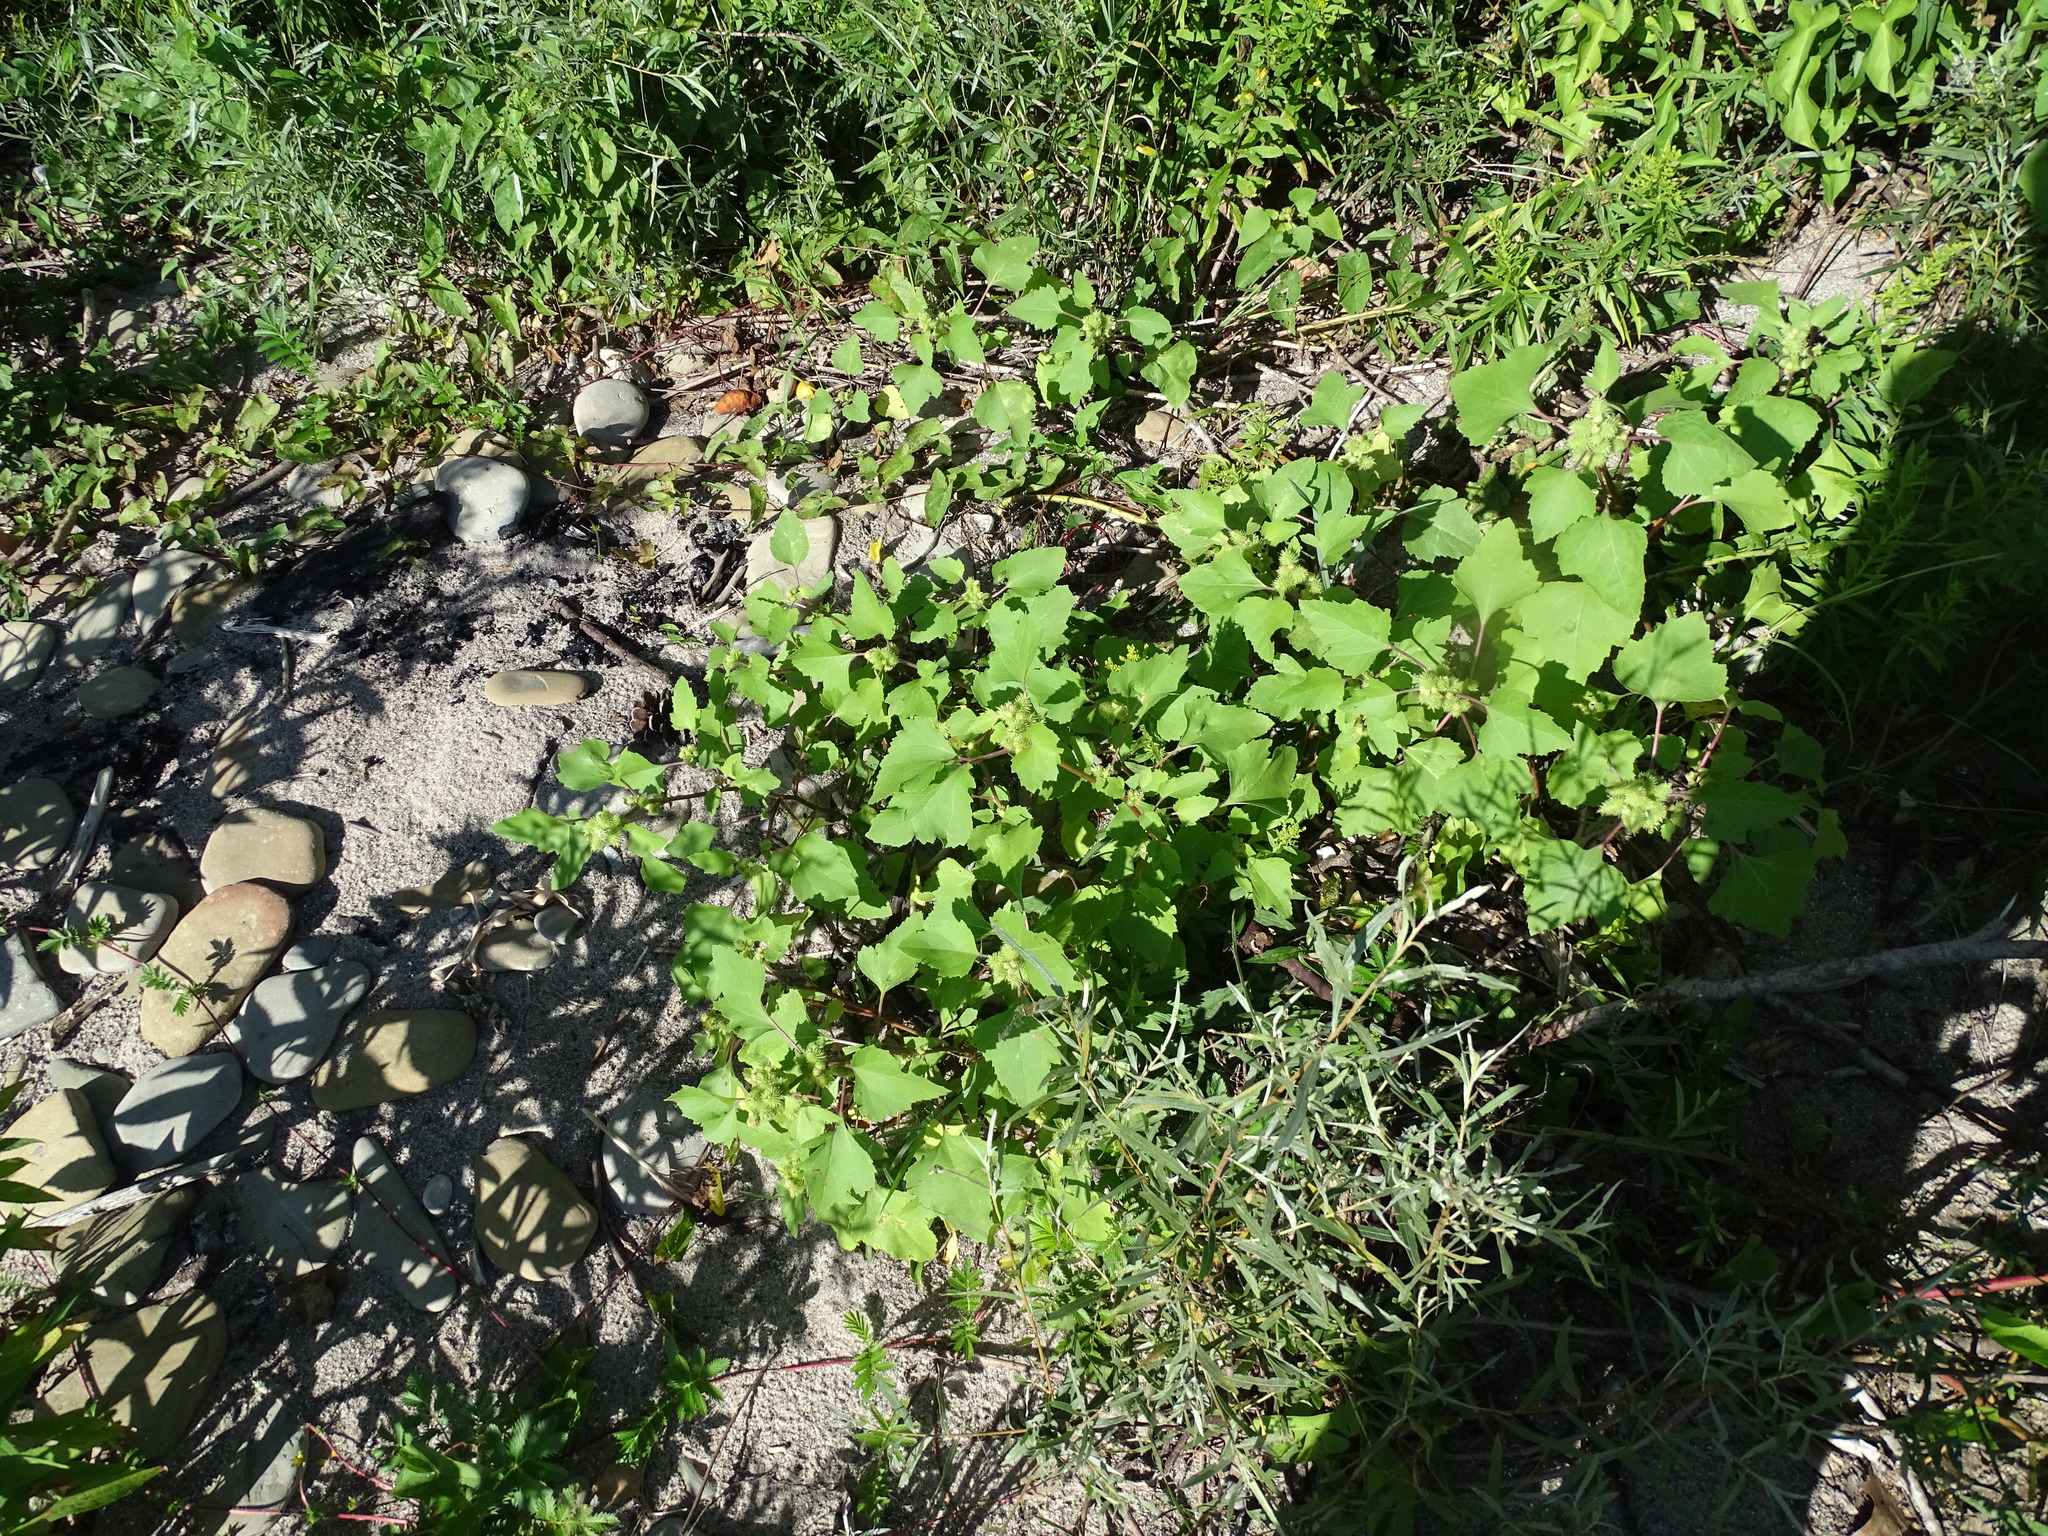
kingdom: Plantae
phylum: Tracheophyta
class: Magnoliopsida
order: Asterales
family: Asteraceae
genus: Xanthium
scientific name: Xanthium strumarium
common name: Rough cocklebur
